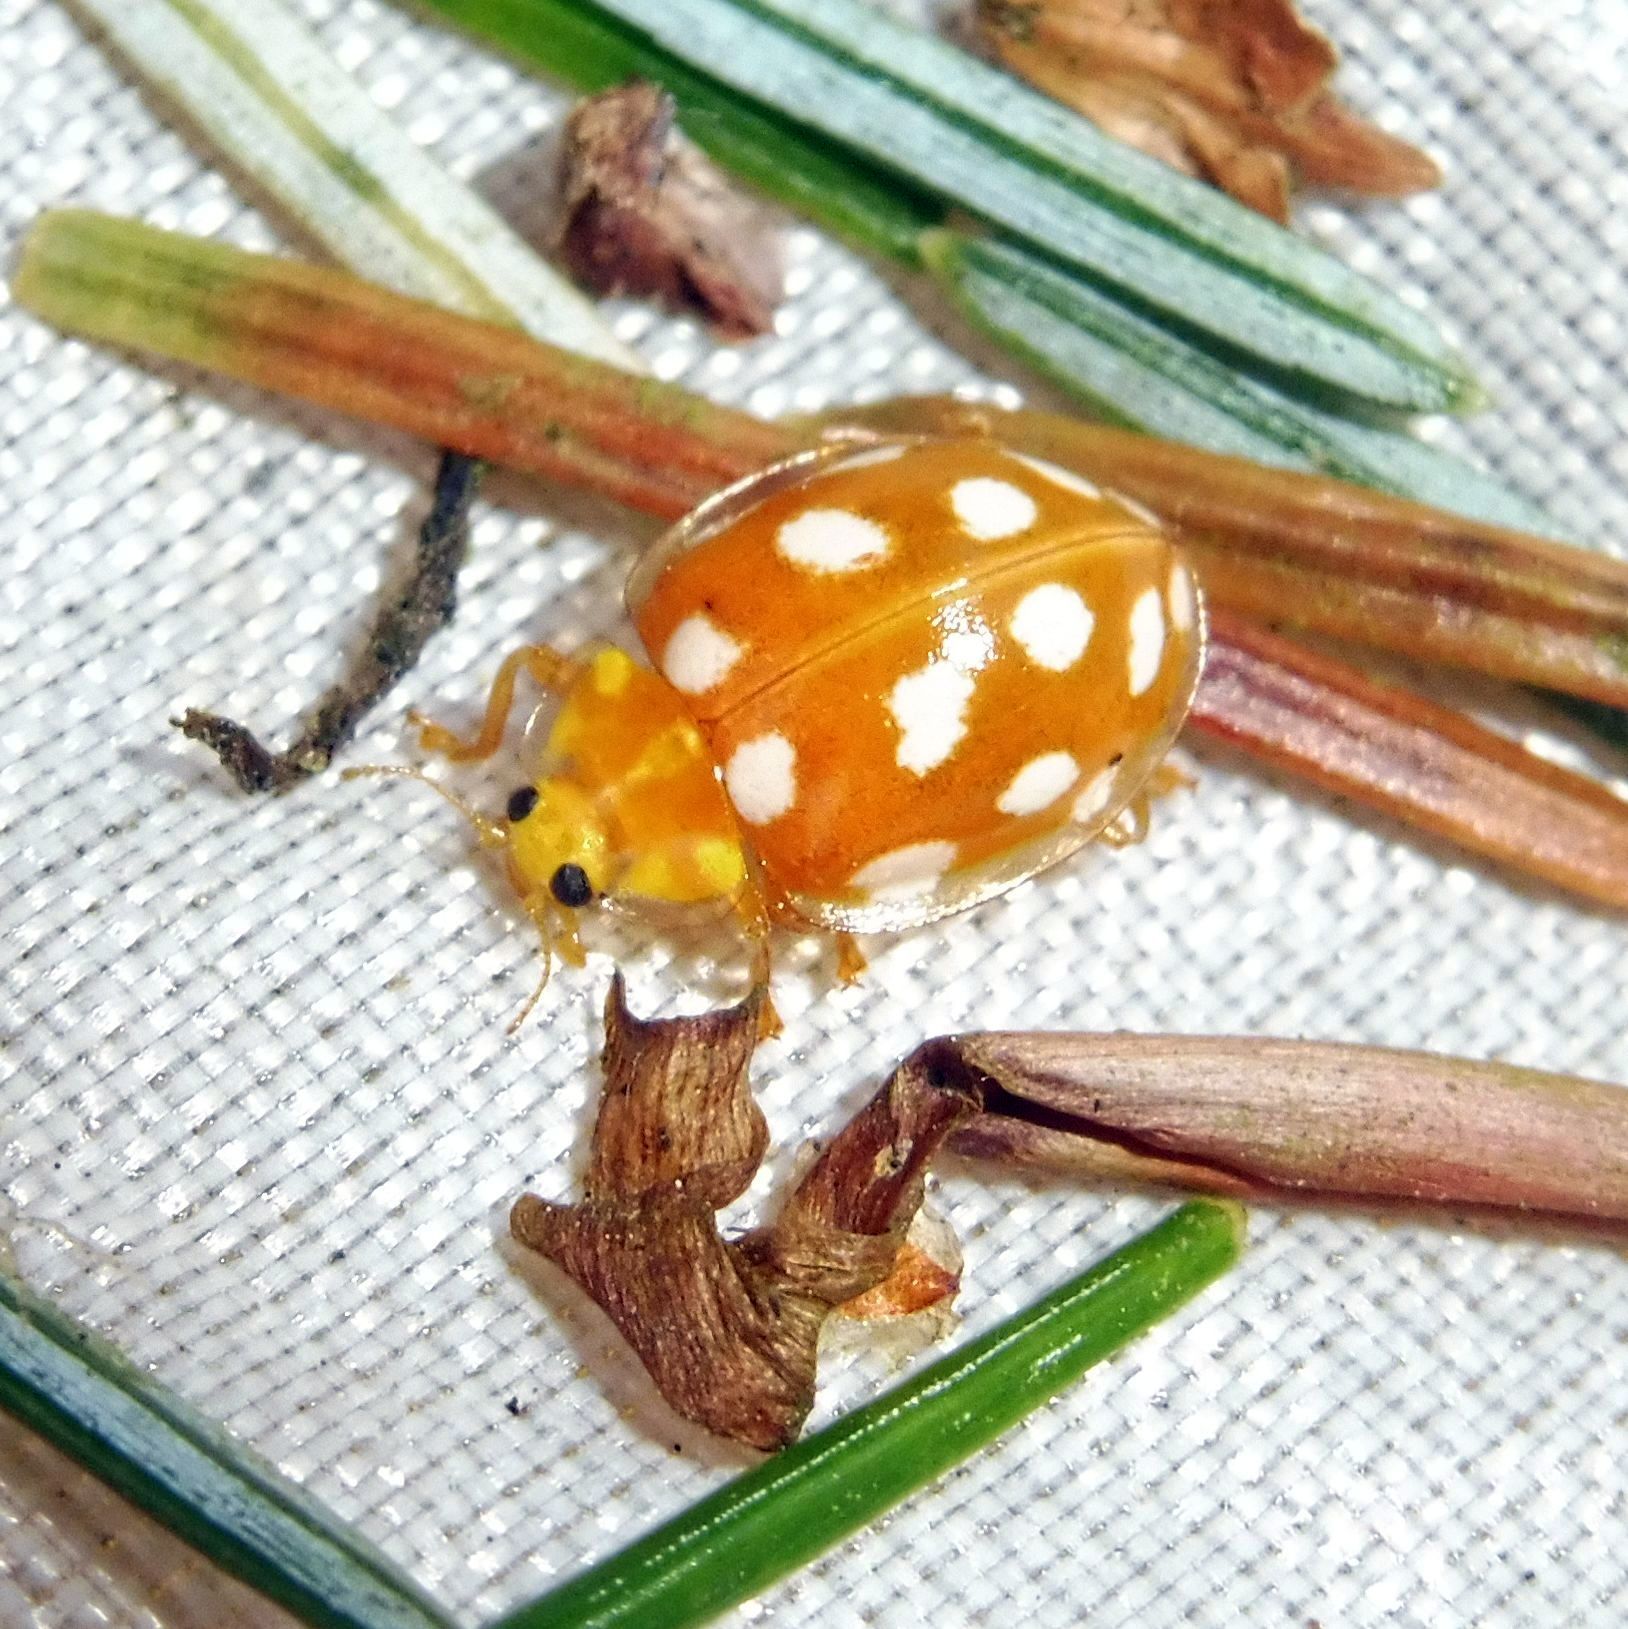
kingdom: Animalia
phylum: Arthropoda
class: Insecta
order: Coleoptera
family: Coccinellidae
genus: Halyzia
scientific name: Halyzia sedecimguttata
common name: Orange ladybird
